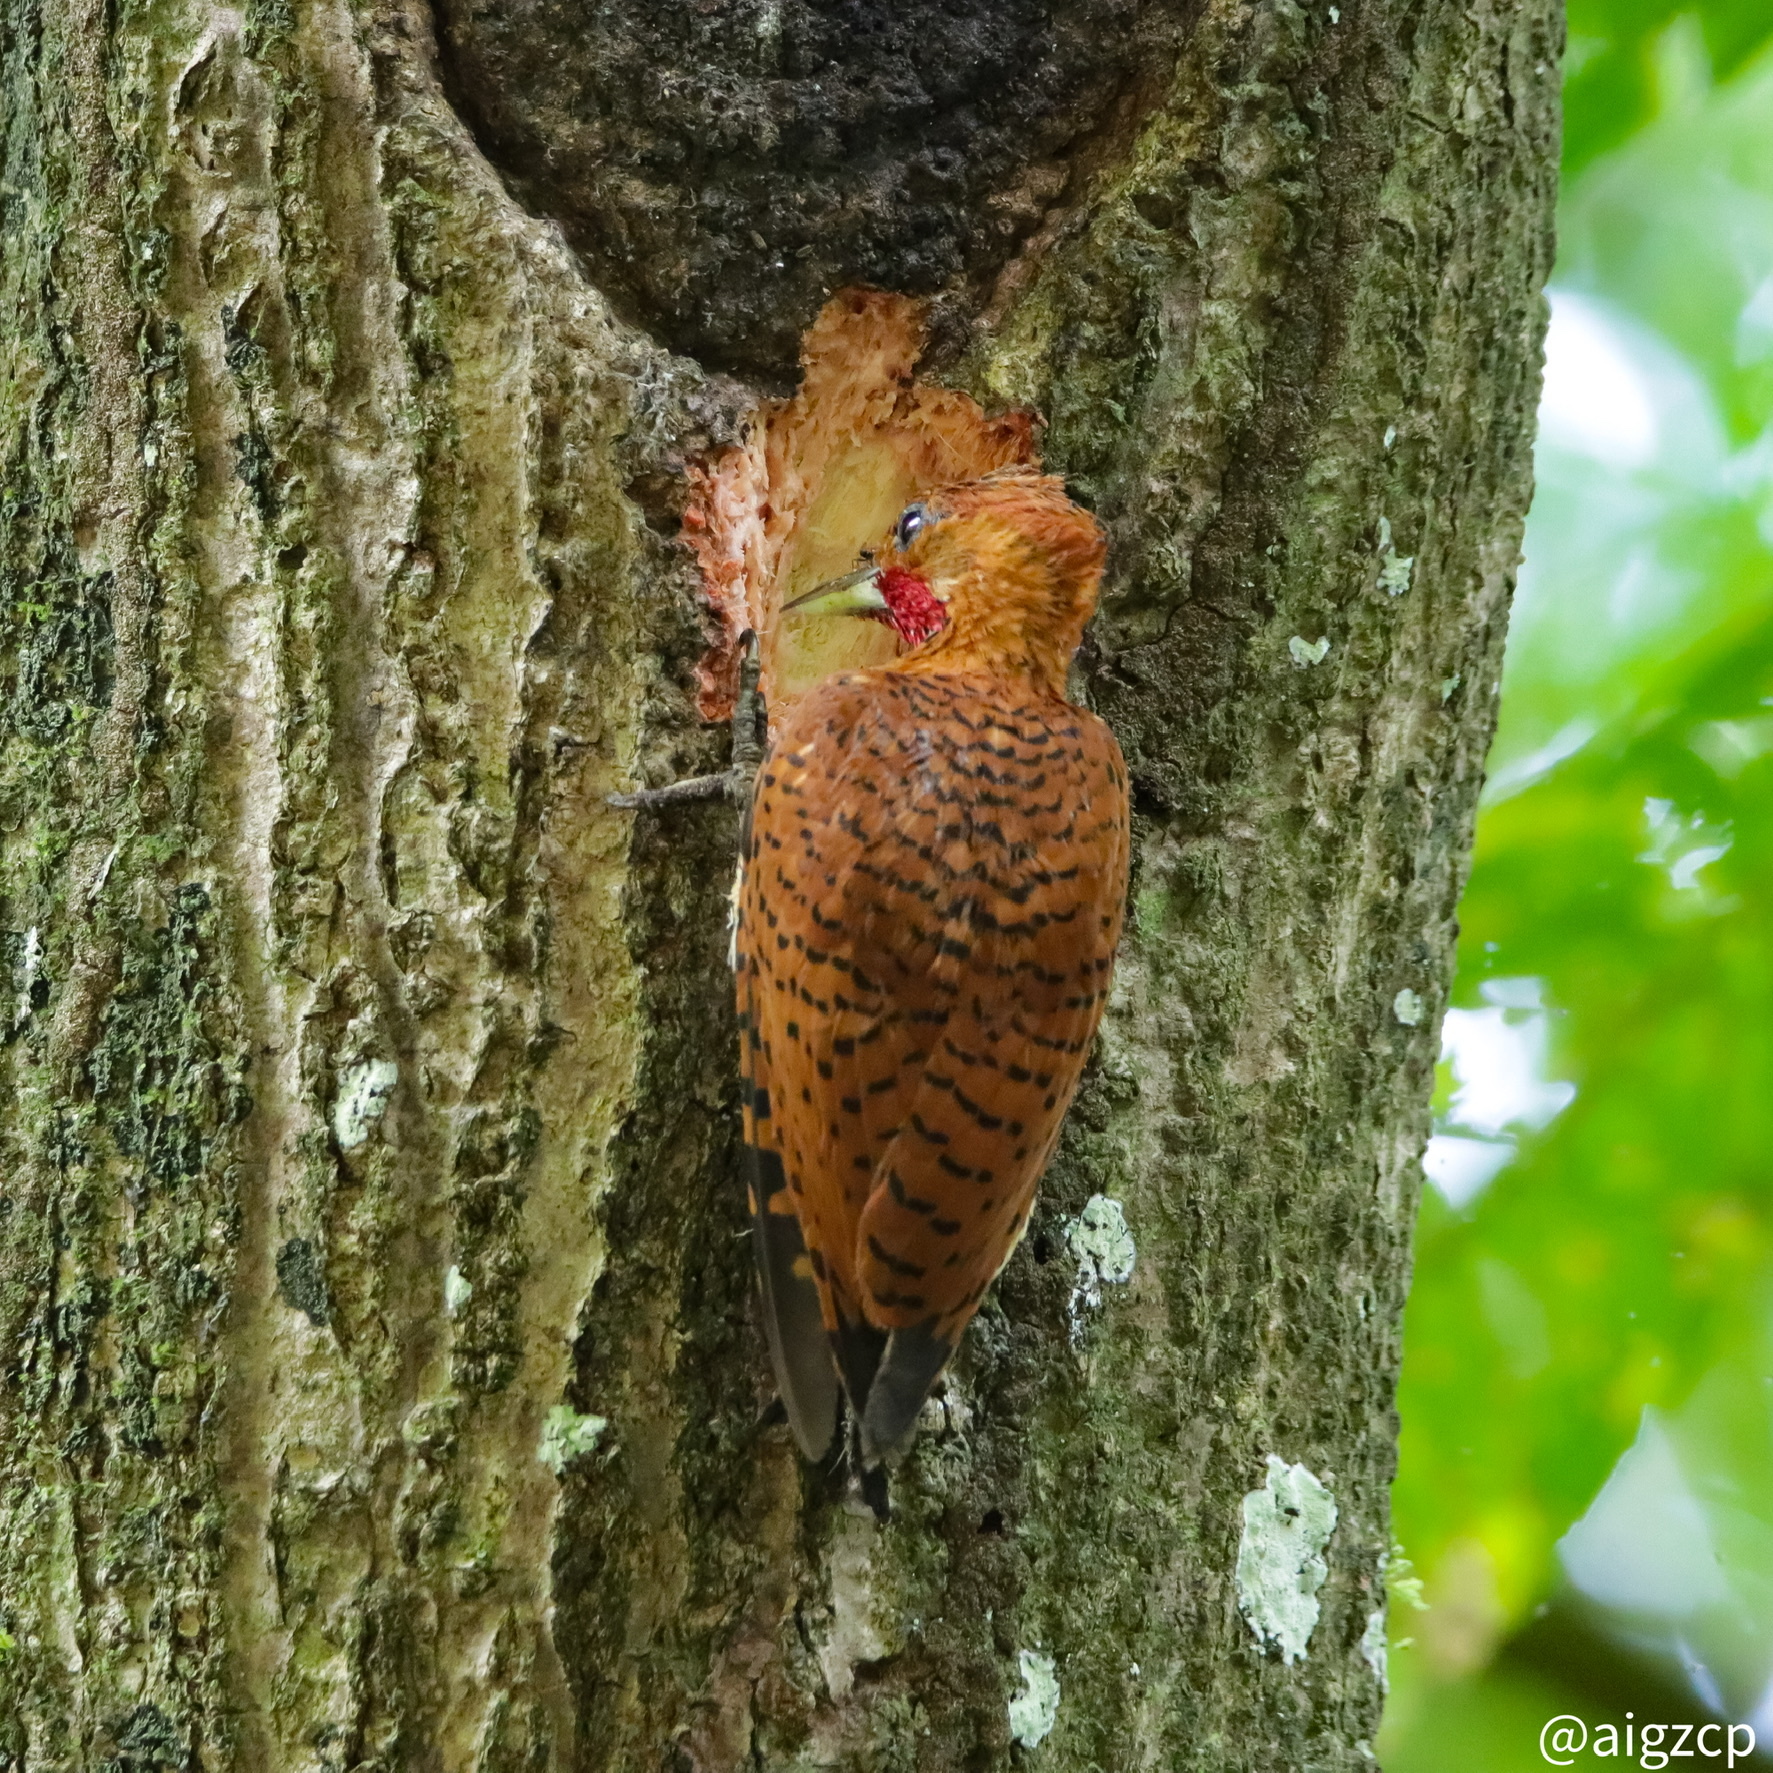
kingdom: Animalia
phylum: Chordata
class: Aves
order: Piciformes
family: Picidae
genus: Celeus
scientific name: Celeus loricatus
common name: Cinnamon woodpecker
